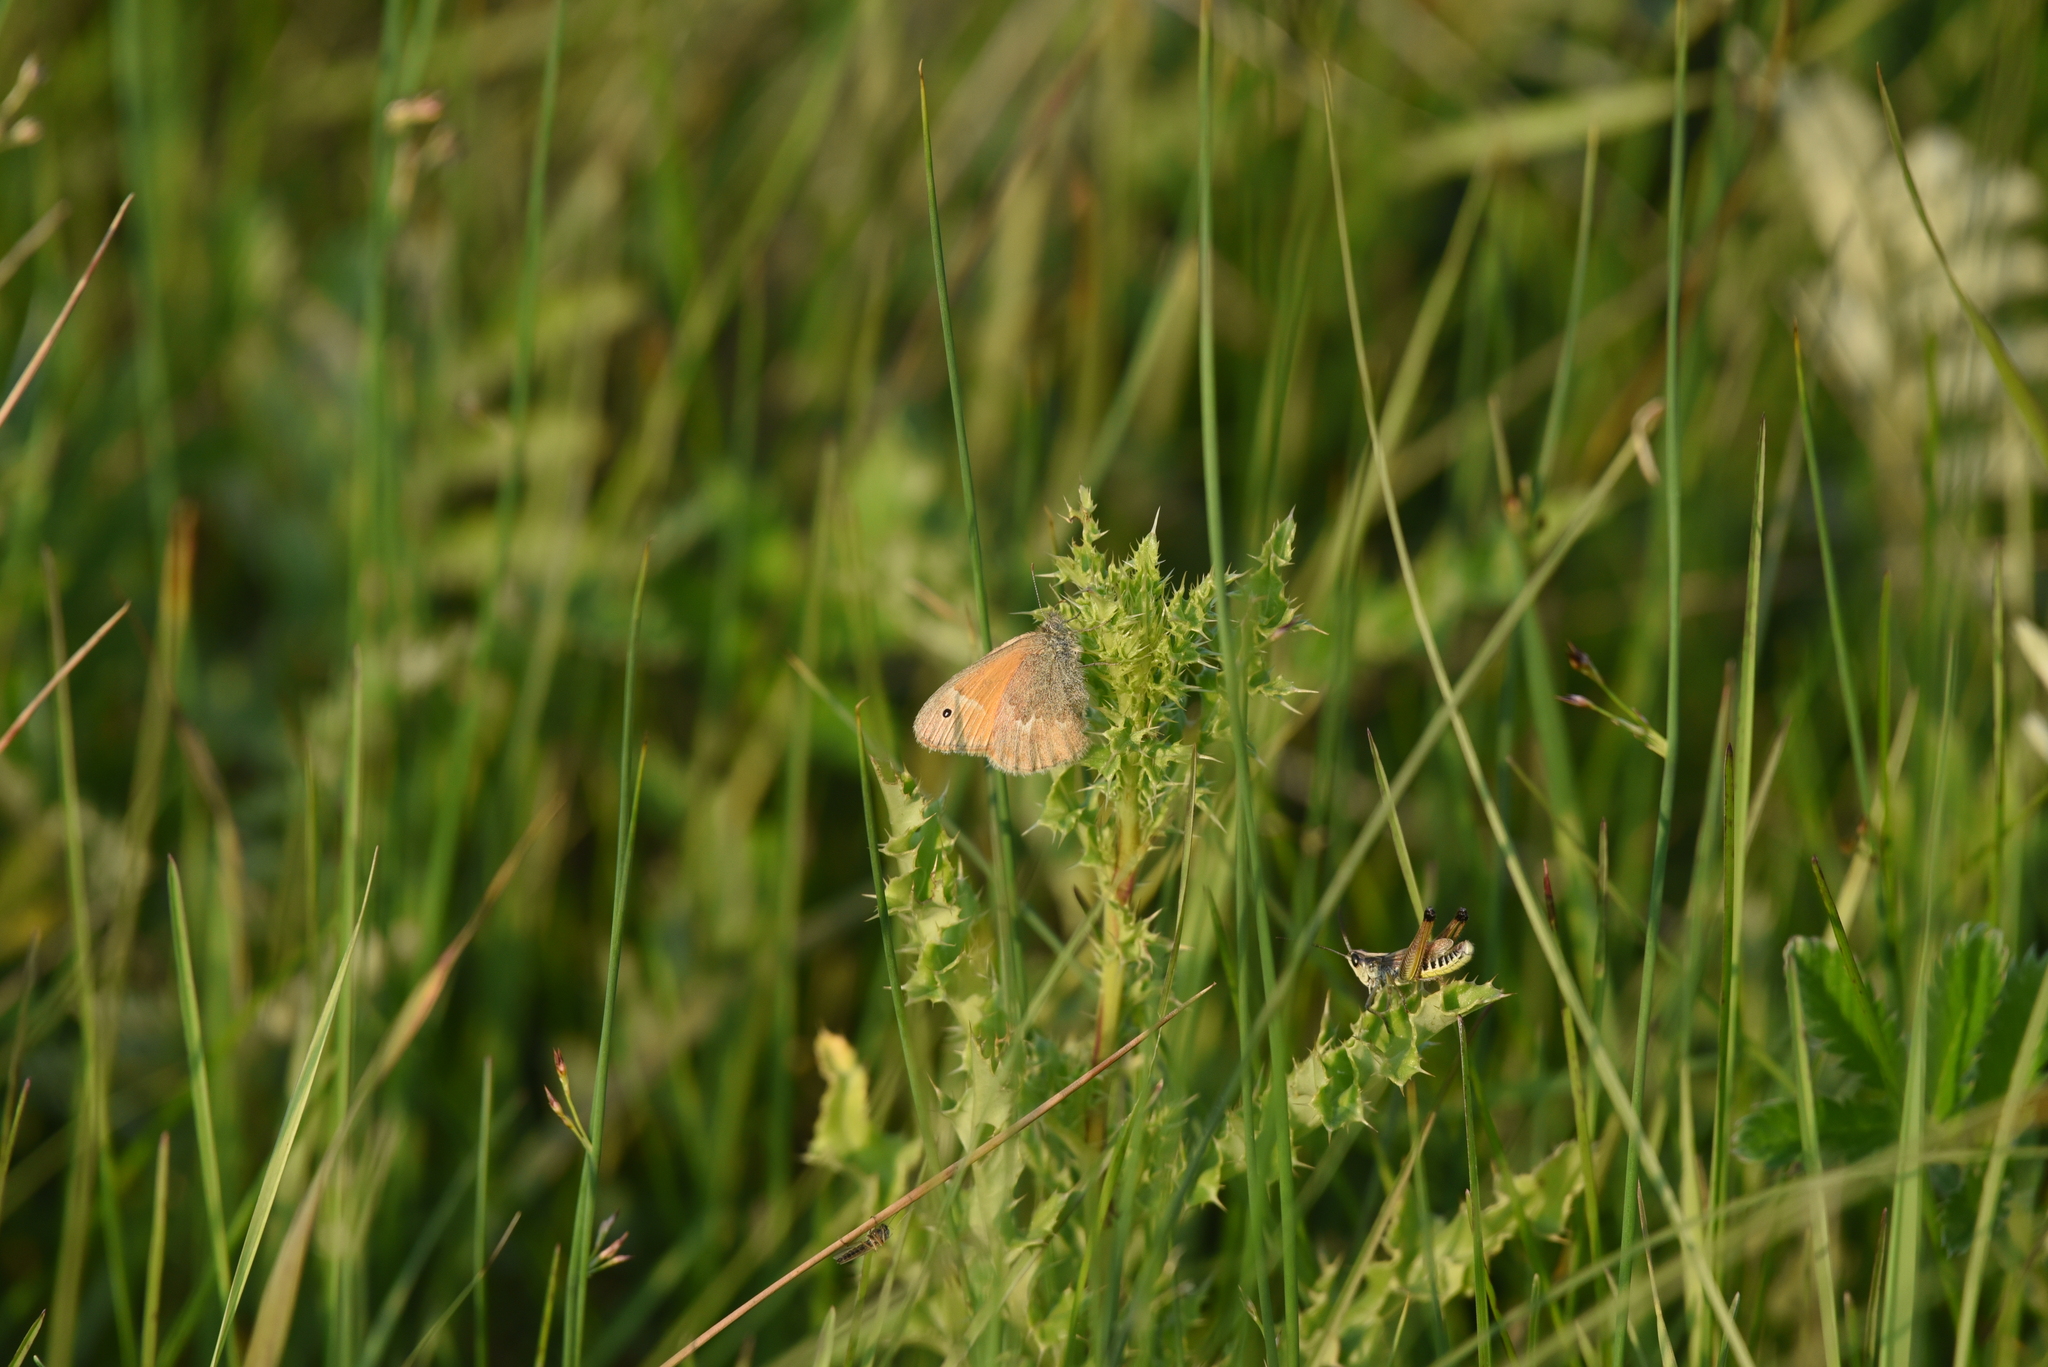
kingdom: Animalia
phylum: Arthropoda
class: Insecta
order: Lepidoptera
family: Nymphalidae
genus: Coenonympha
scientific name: Coenonympha california
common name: Common ringlet
